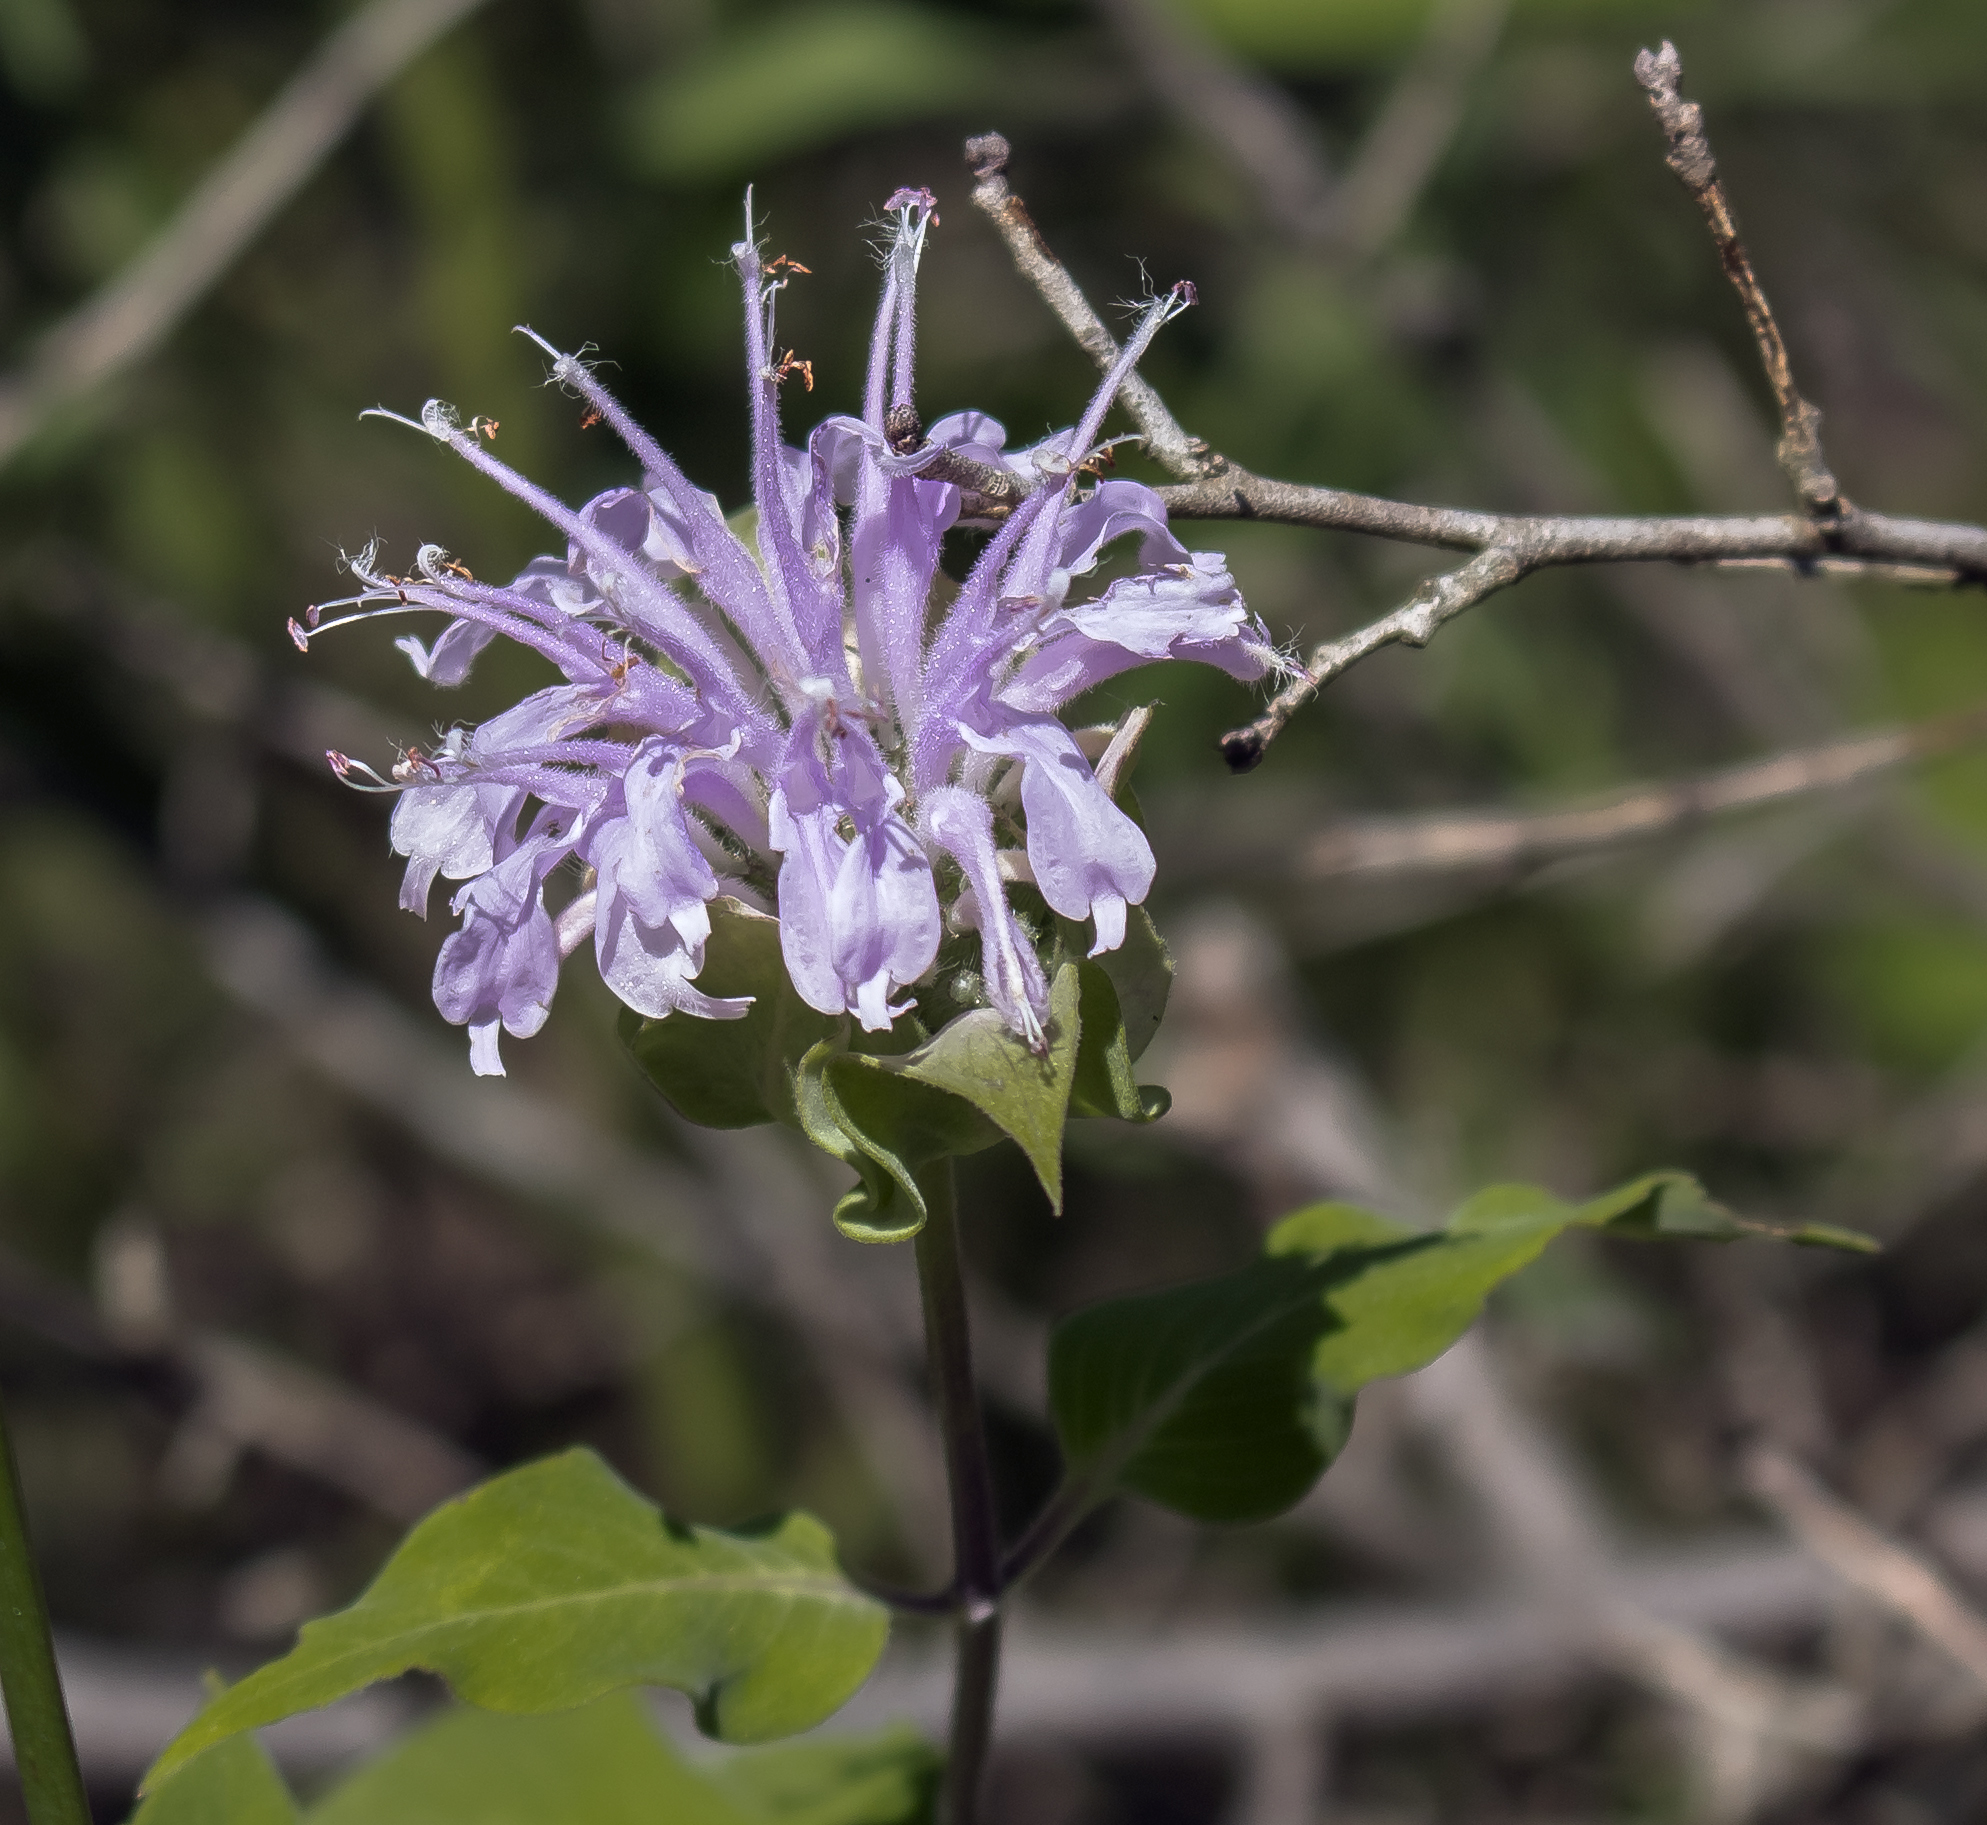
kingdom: Plantae
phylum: Tracheophyta
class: Magnoliopsida
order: Lamiales
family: Lamiaceae
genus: Monarda
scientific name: Monarda fistulosa
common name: Purple beebalm
